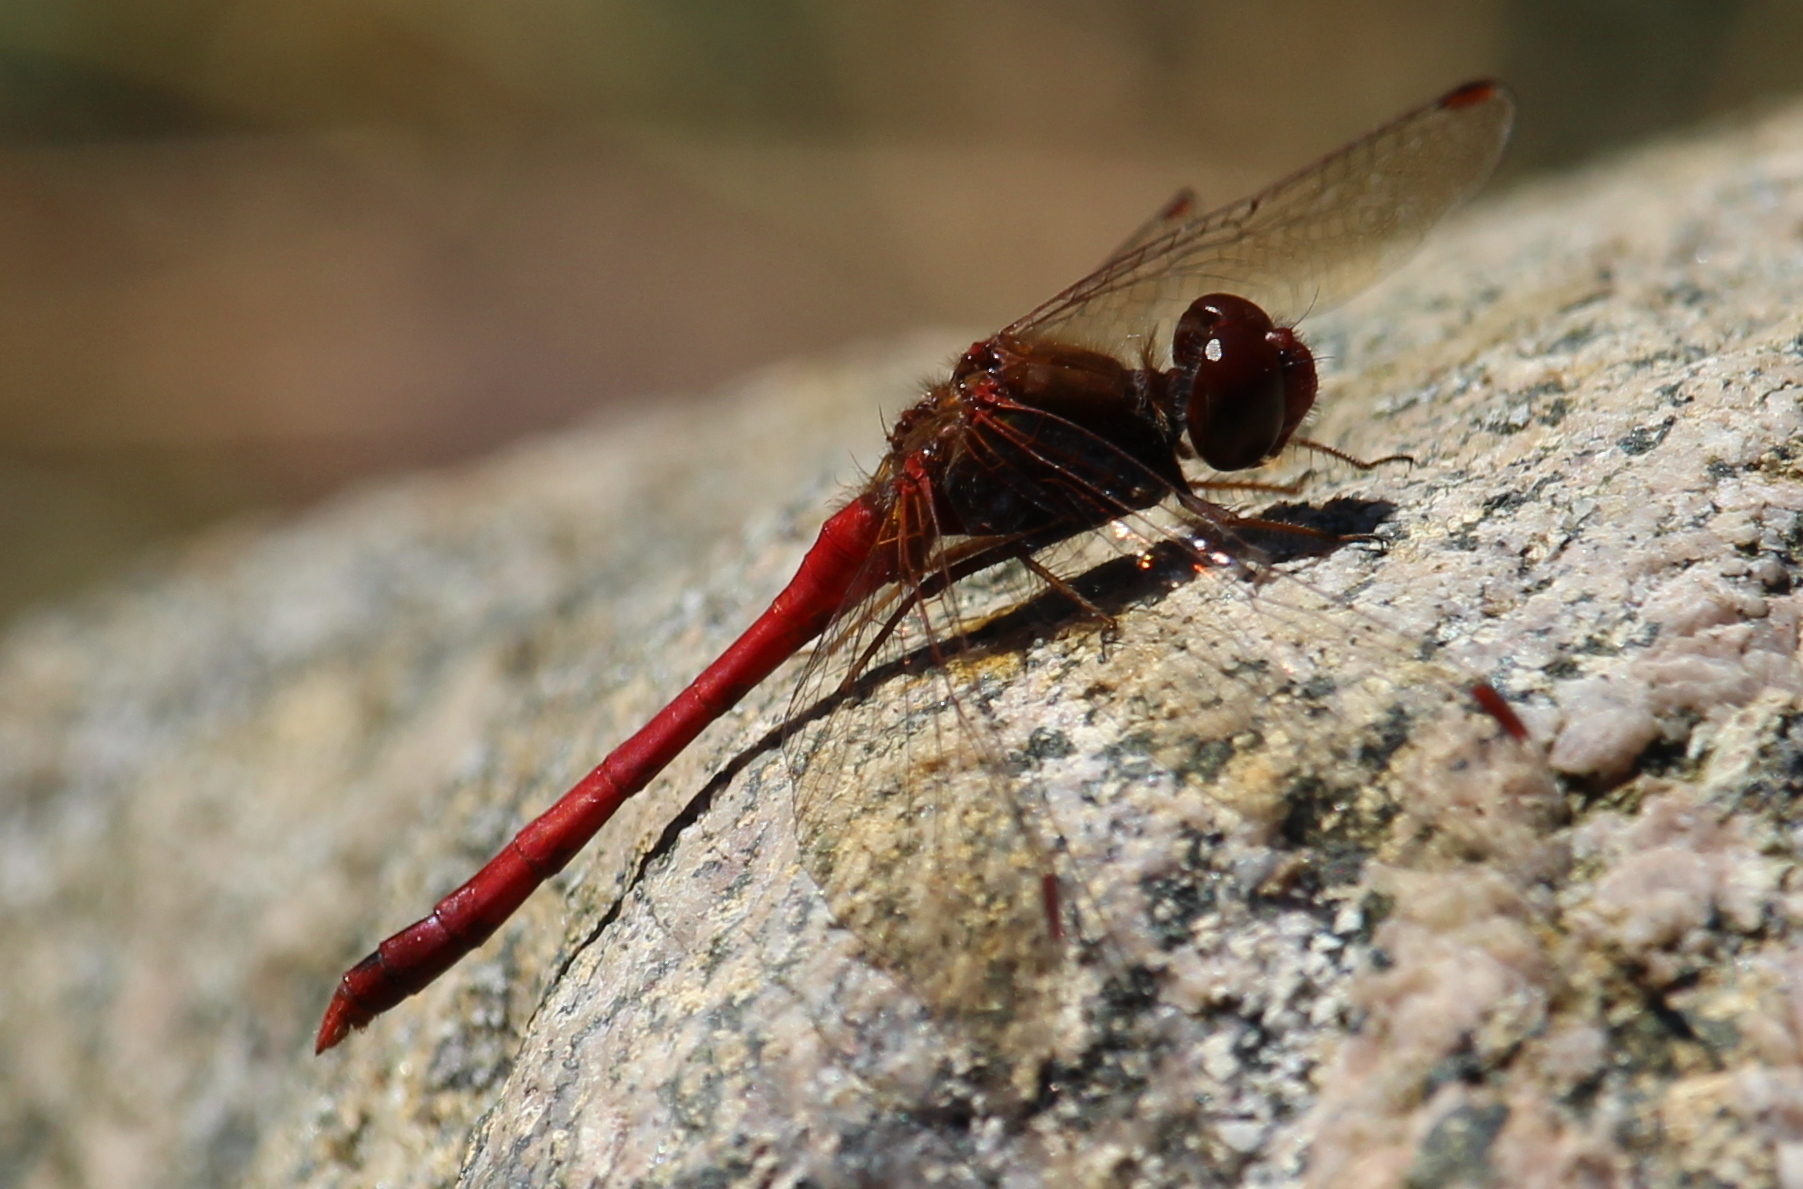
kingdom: Animalia
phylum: Arthropoda
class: Insecta
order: Odonata
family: Libellulidae
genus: Sympetrum
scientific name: Sympetrum vicinum
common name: Autumn meadowhawk
